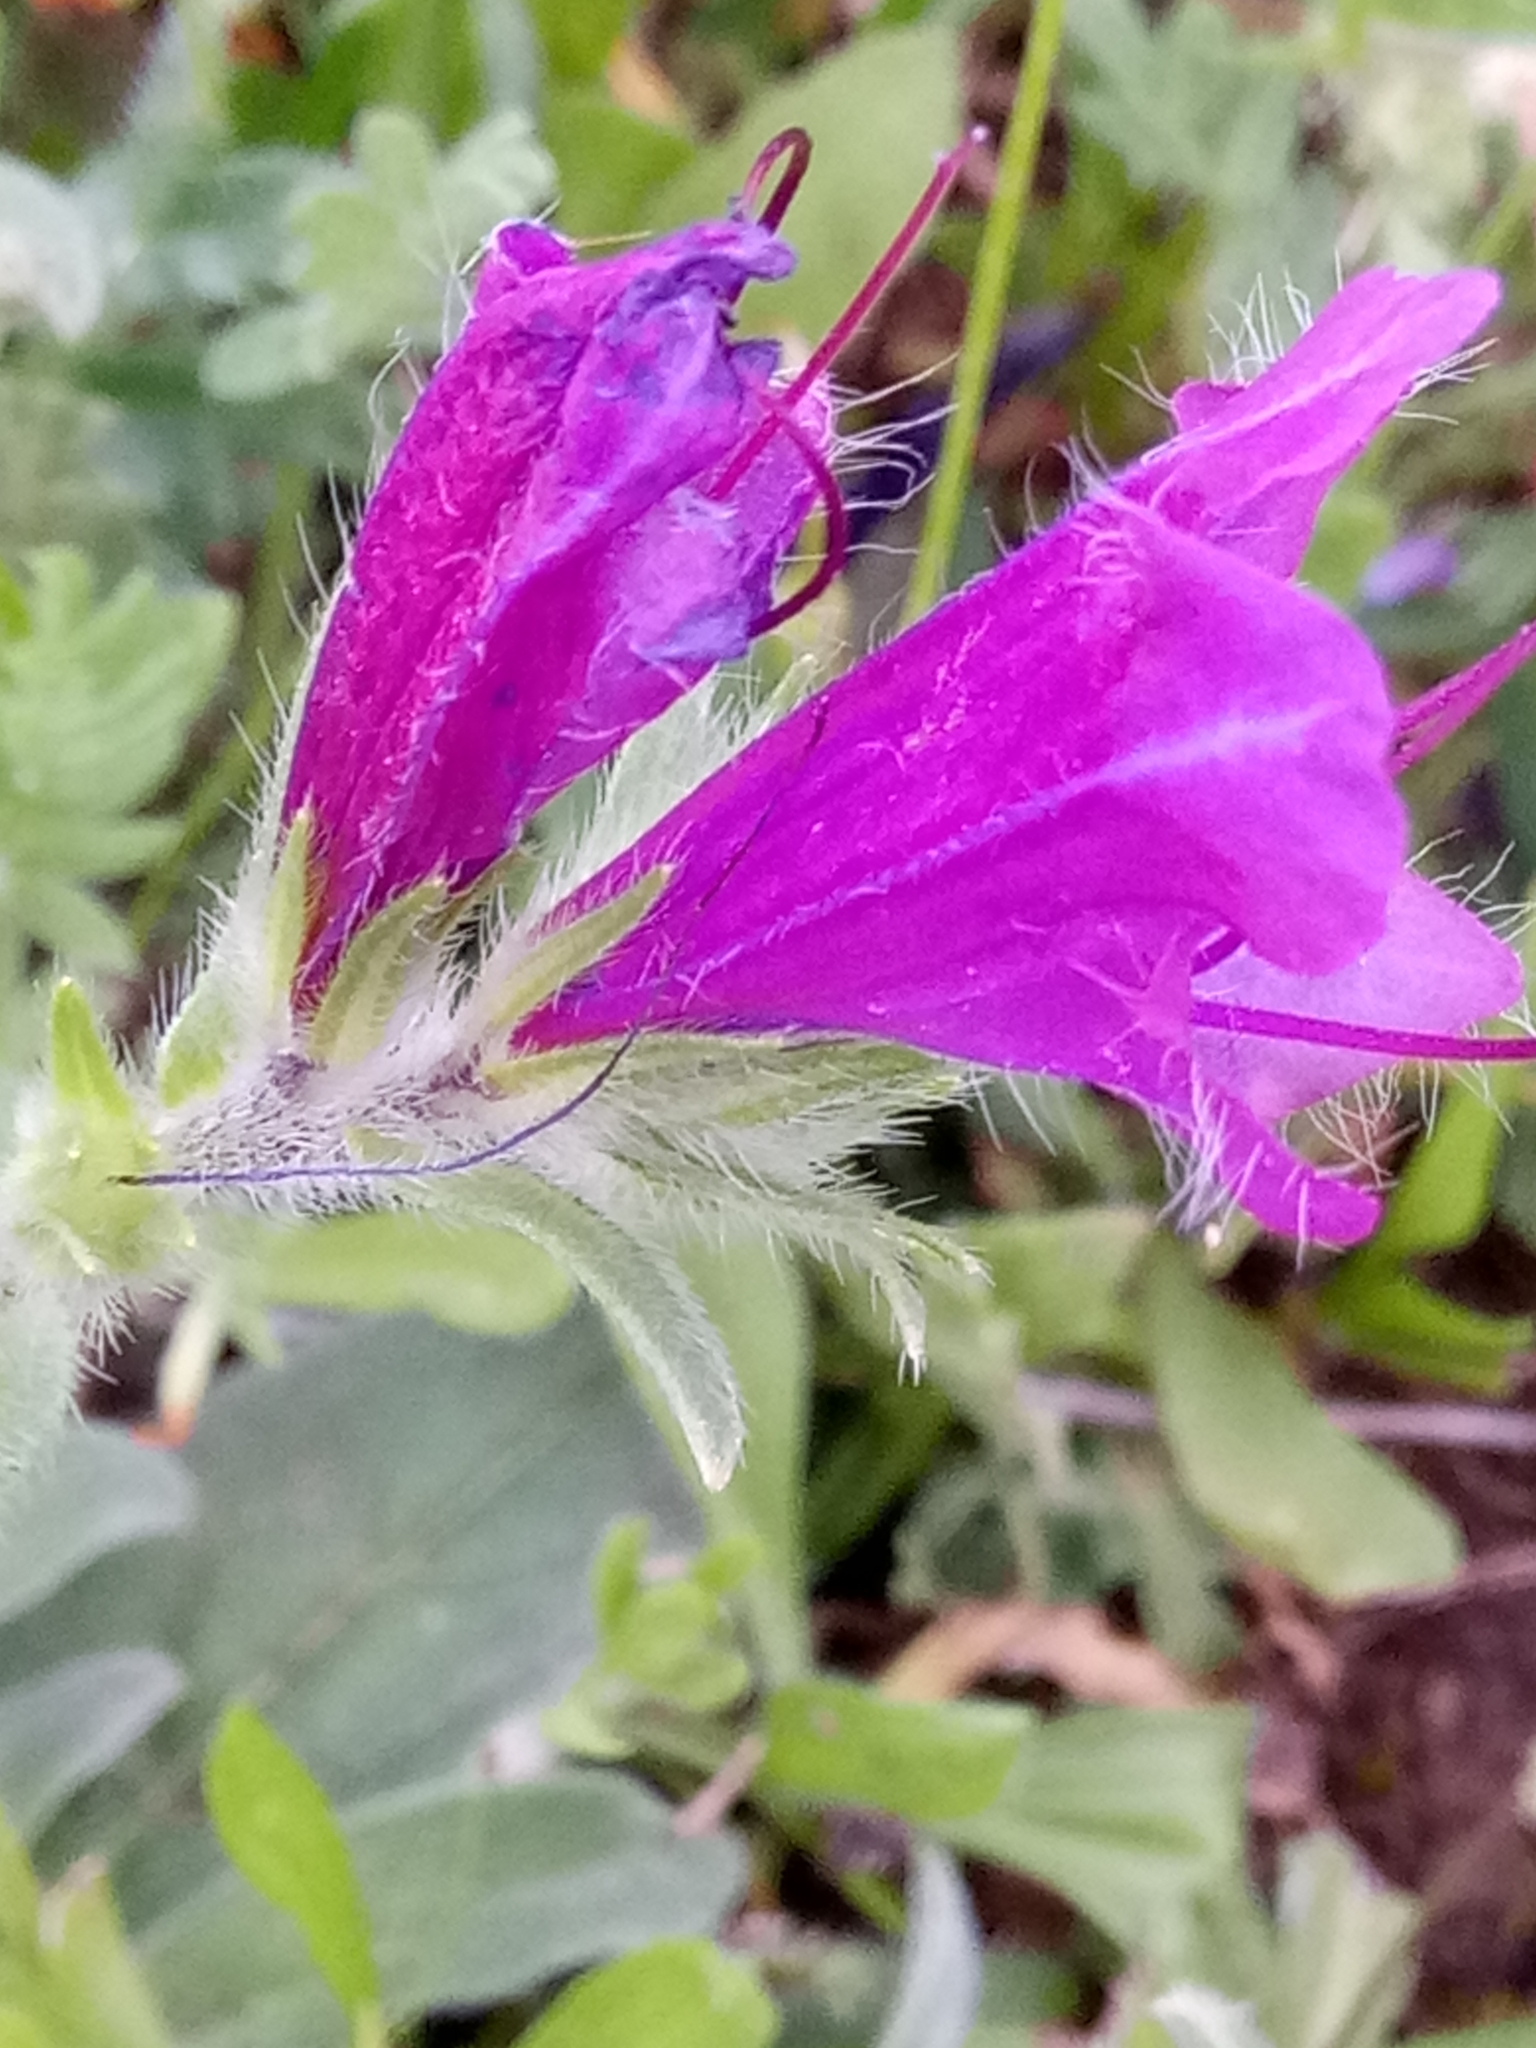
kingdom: Plantae
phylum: Tracheophyta
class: Magnoliopsida
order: Boraginales
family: Boraginaceae
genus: Echium
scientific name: Echium plantagineum
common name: Purple viper's-bugloss
